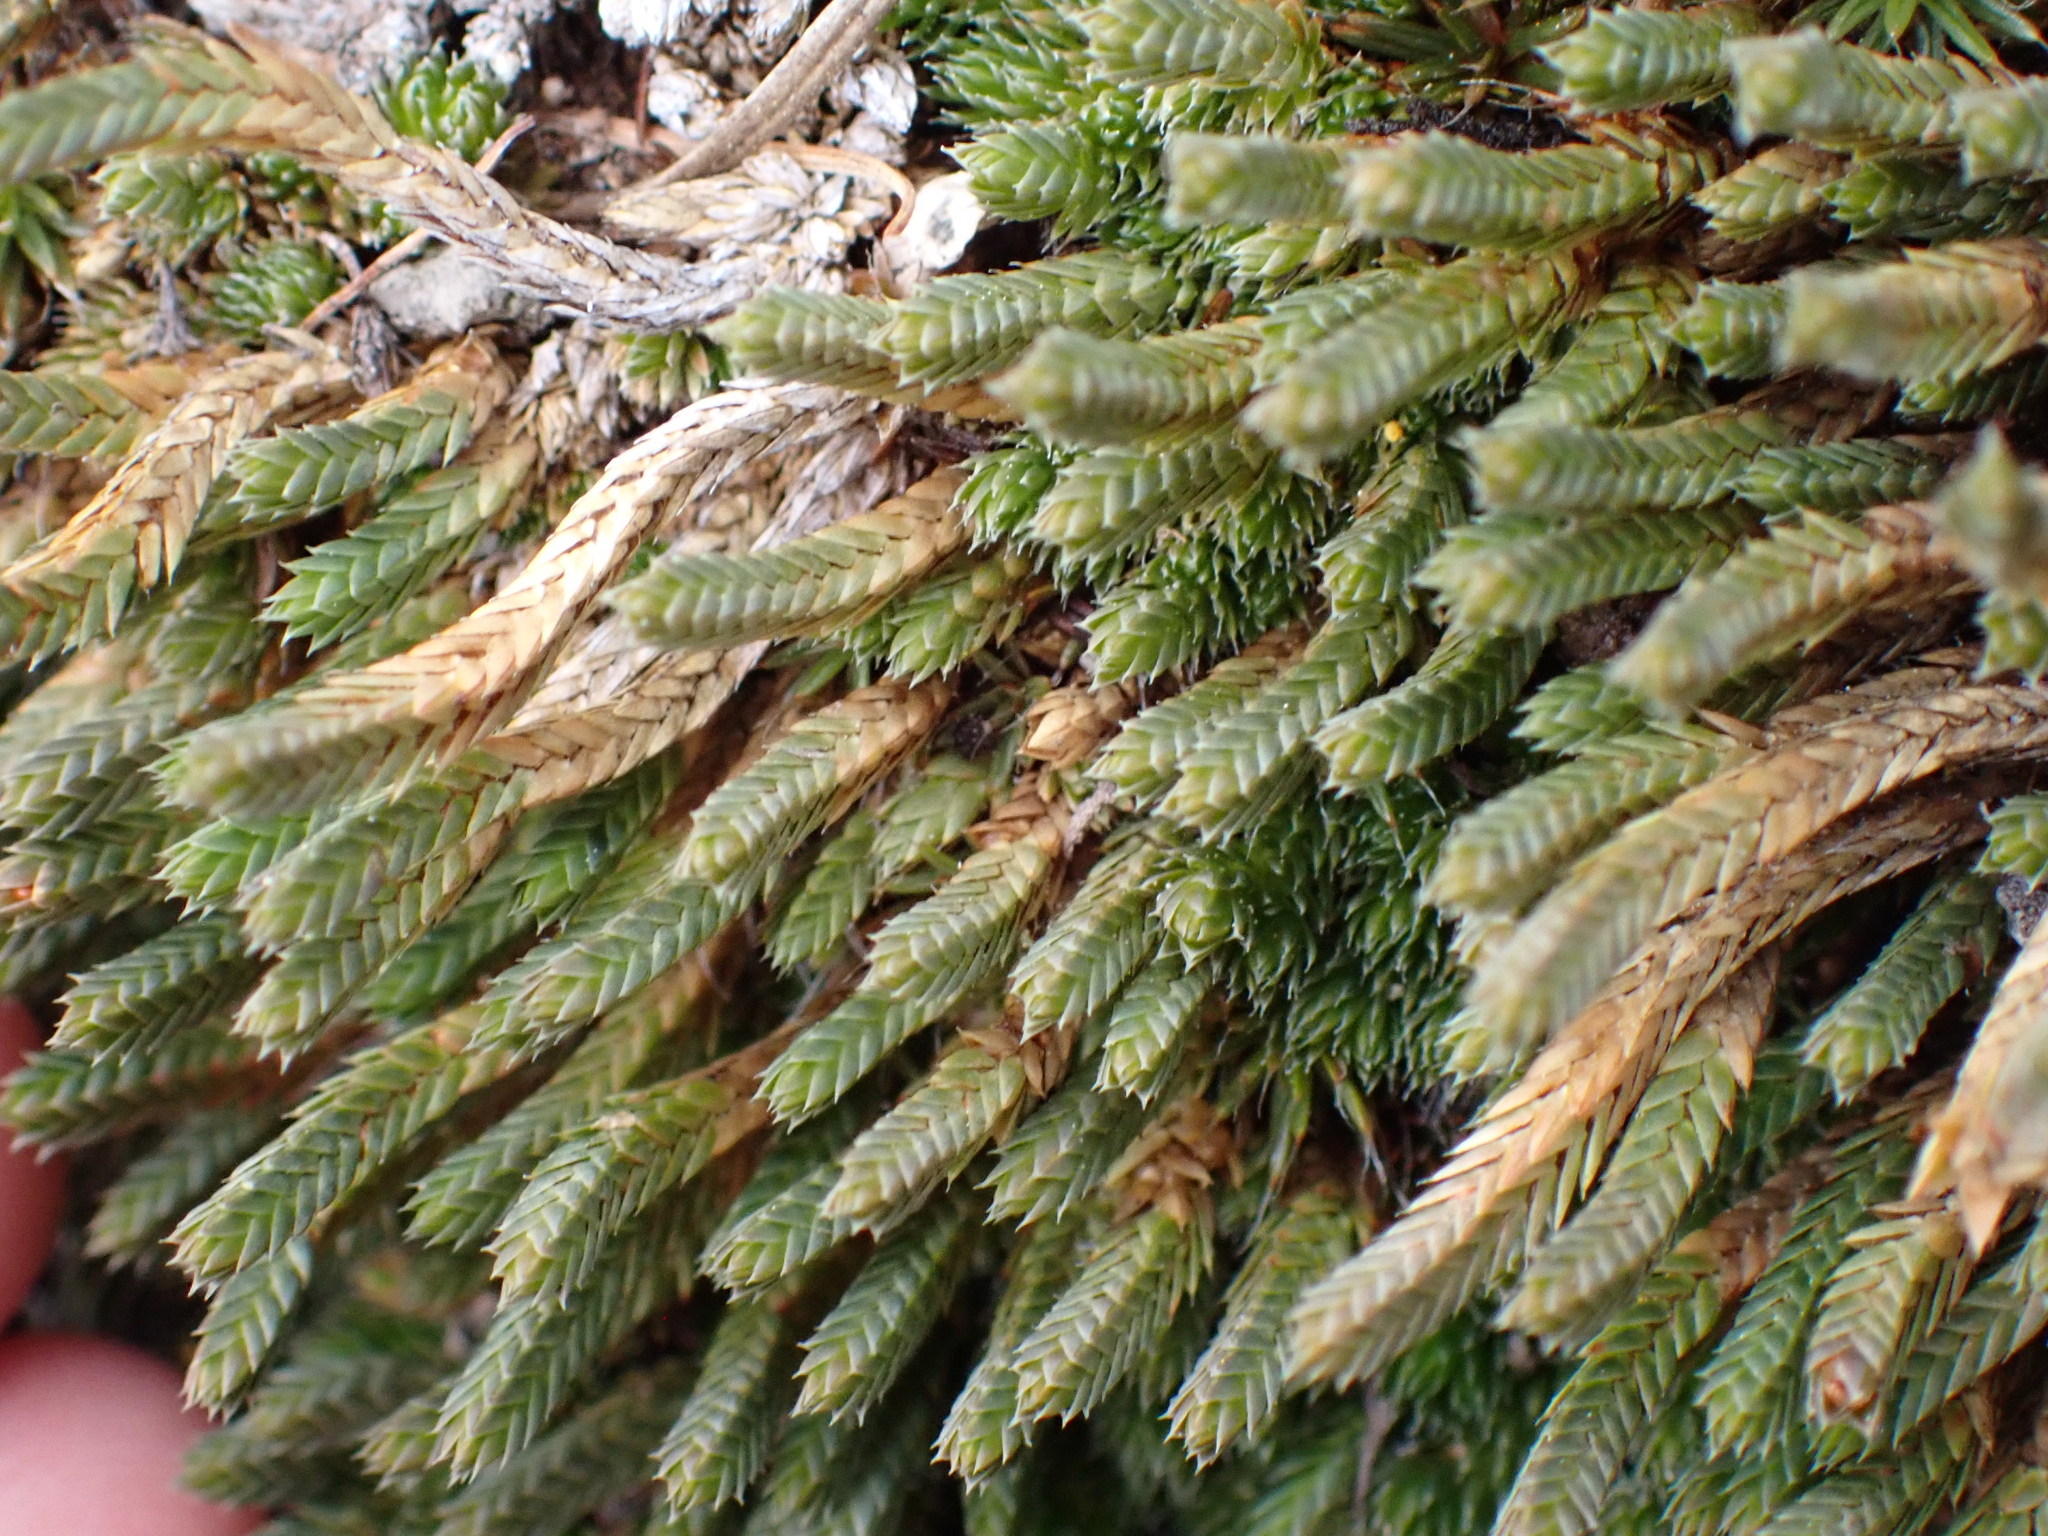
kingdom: Plantae
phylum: Tracheophyta
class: Lycopodiopsida
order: Selaginellales
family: Selaginellaceae
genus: Selaginella
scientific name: Selaginella densa
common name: Mountain spike-moss
